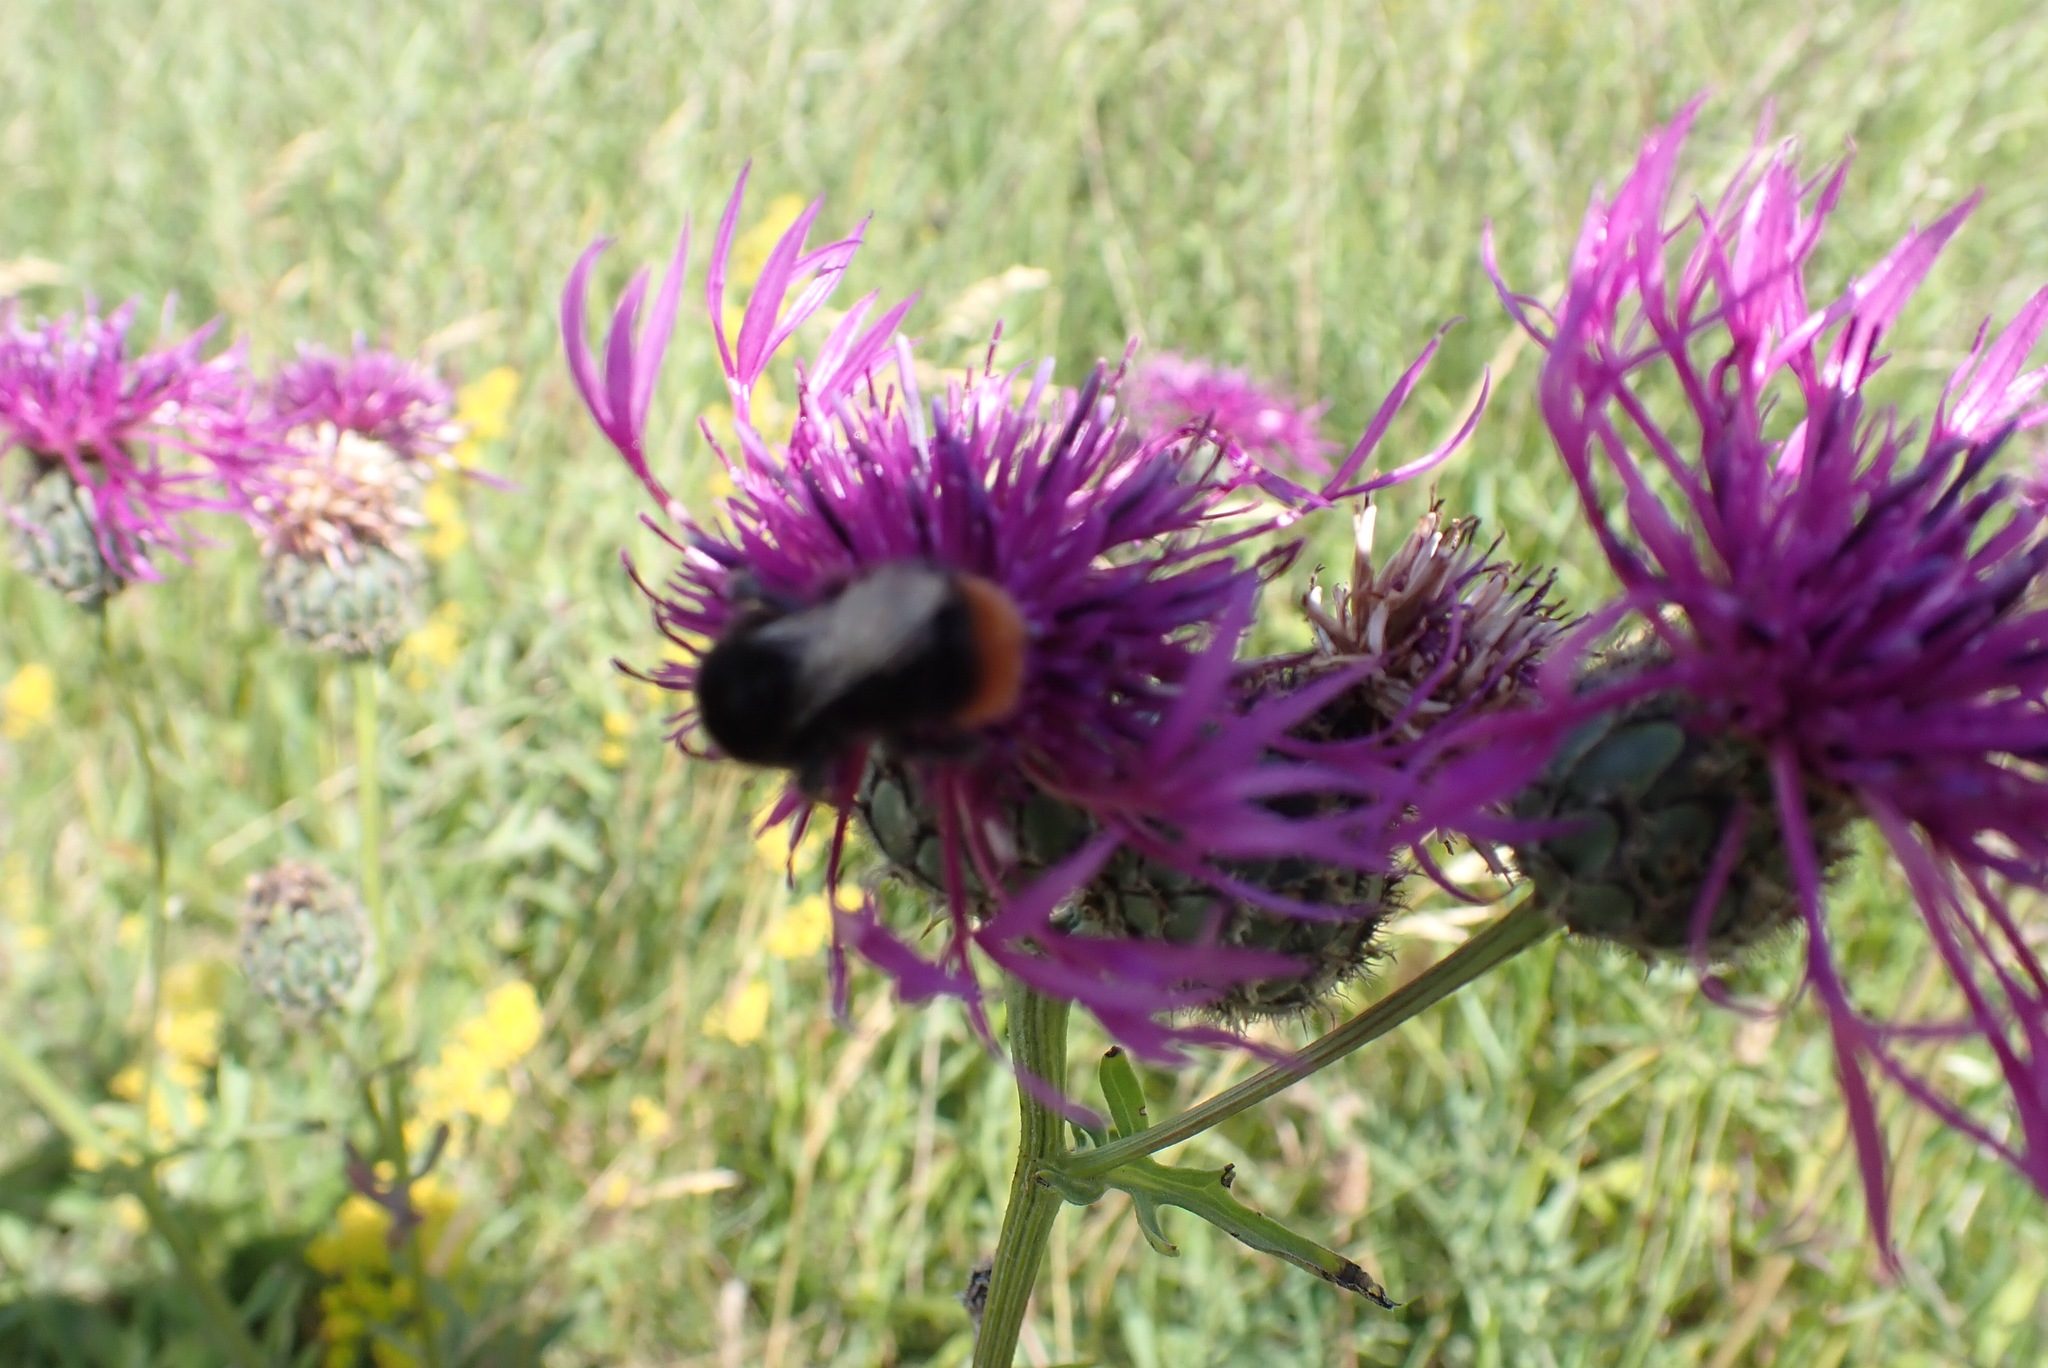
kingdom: Plantae
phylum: Tracheophyta
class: Magnoliopsida
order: Asterales
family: Asteraceae
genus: Centaurea
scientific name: Centaurea scabiosa
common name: Greater knapweed
